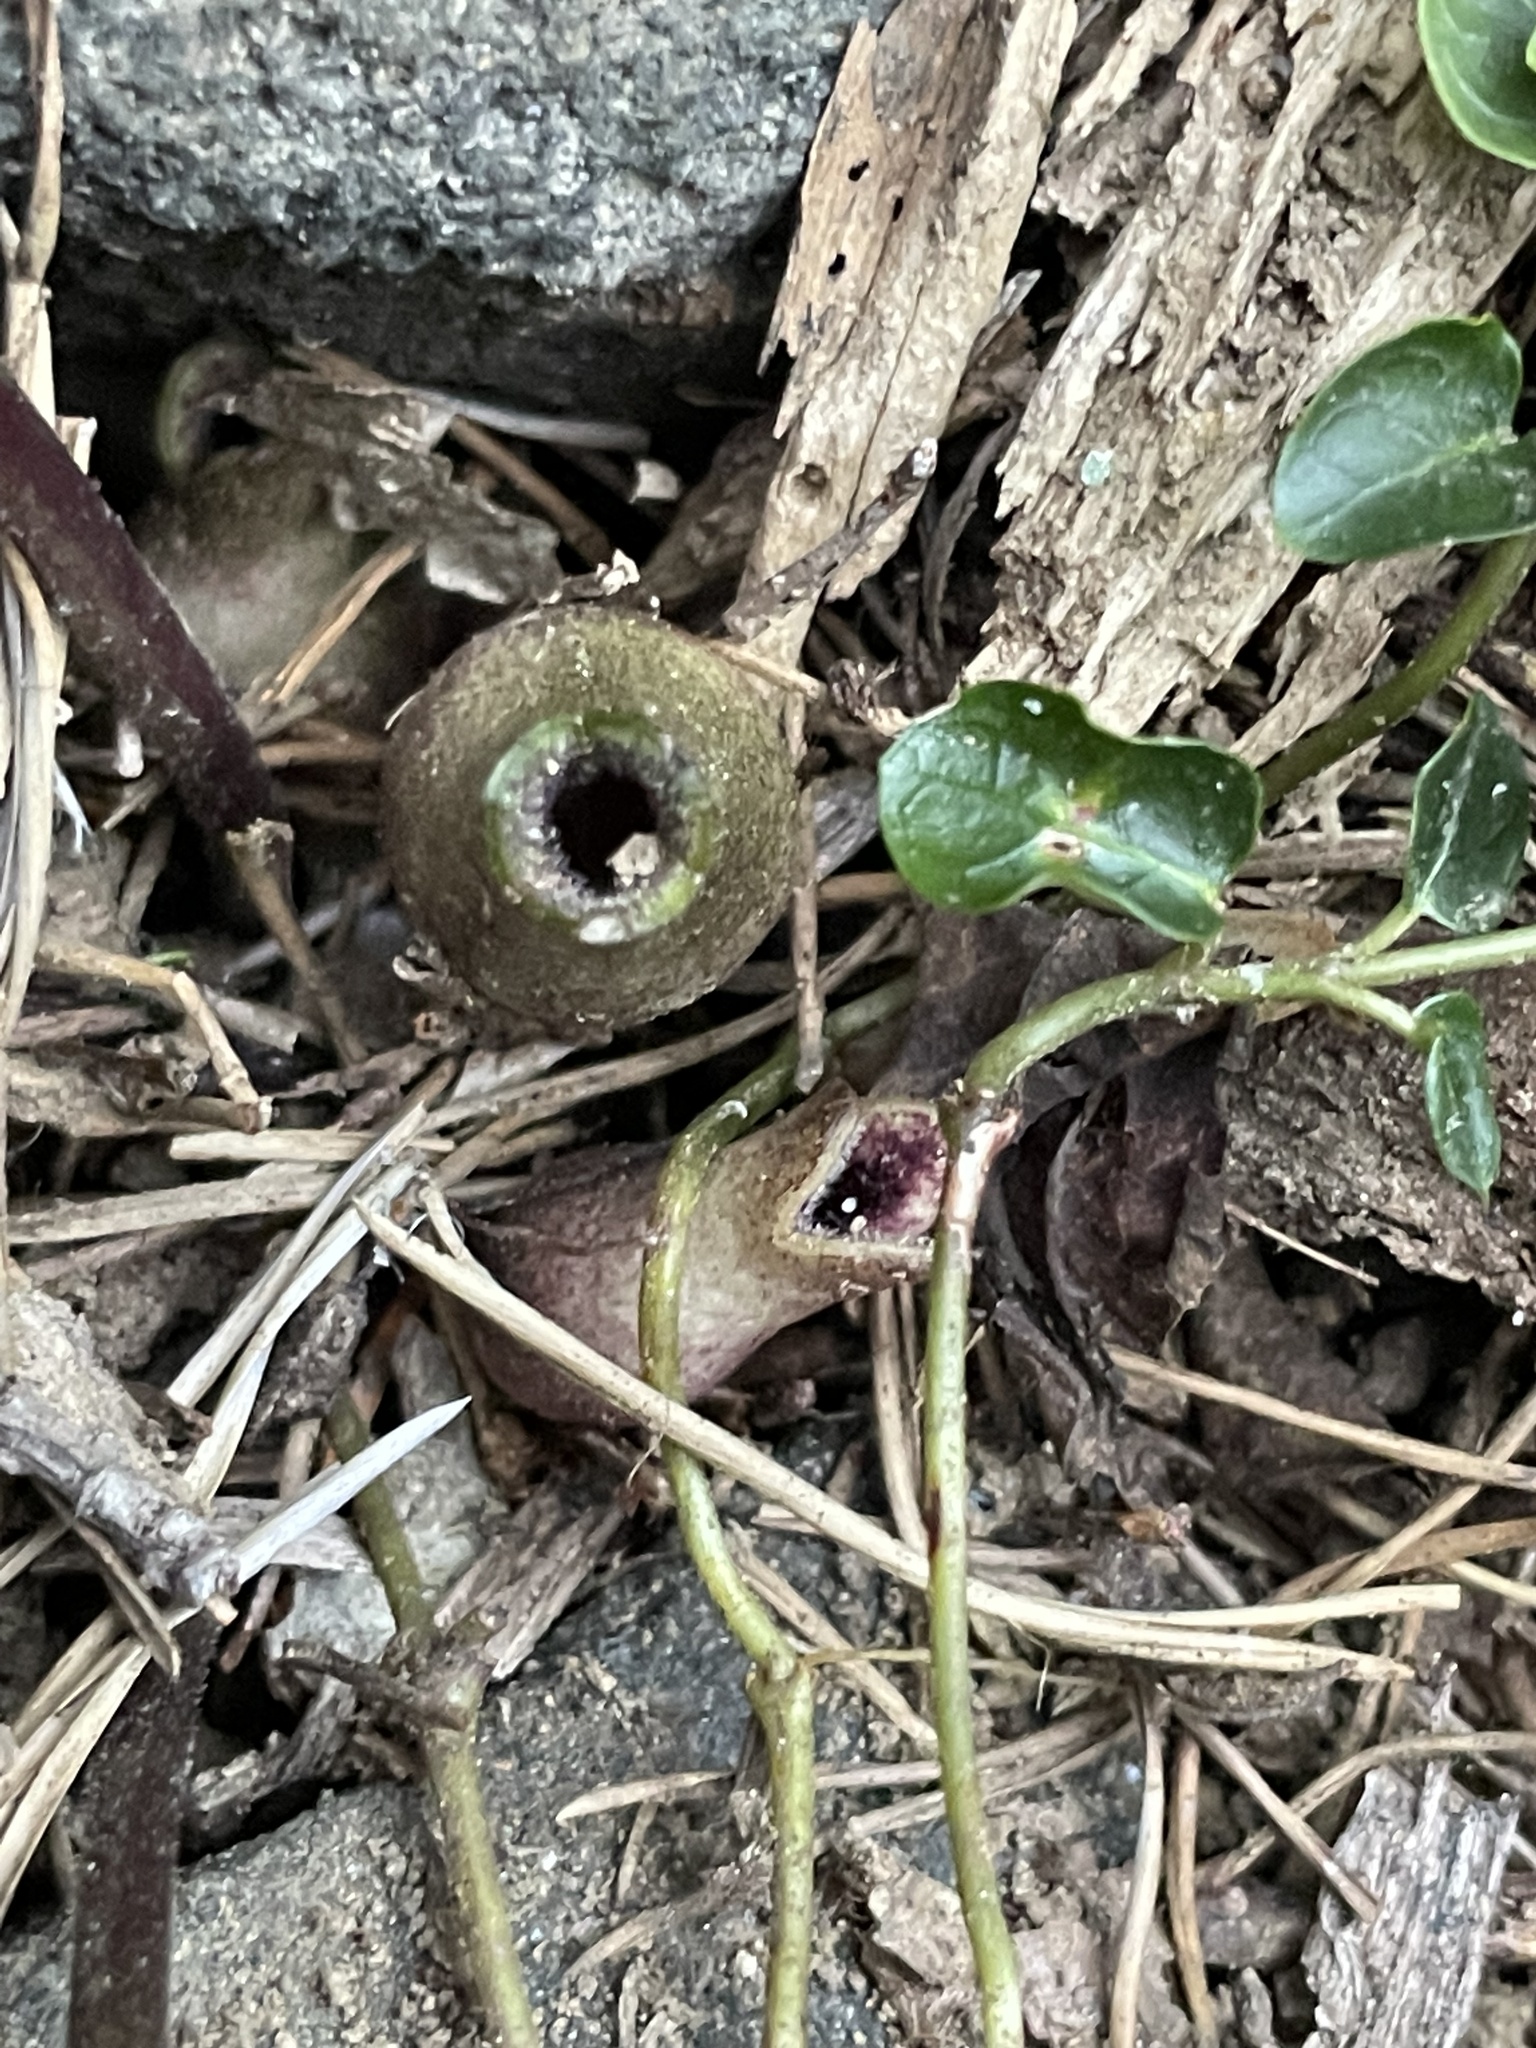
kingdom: Plantae
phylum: Tracheophyta
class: Magnoliopsida
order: Piperales
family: Aristolochiaceae
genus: Hexastylis
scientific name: Hexastylis arifolia
